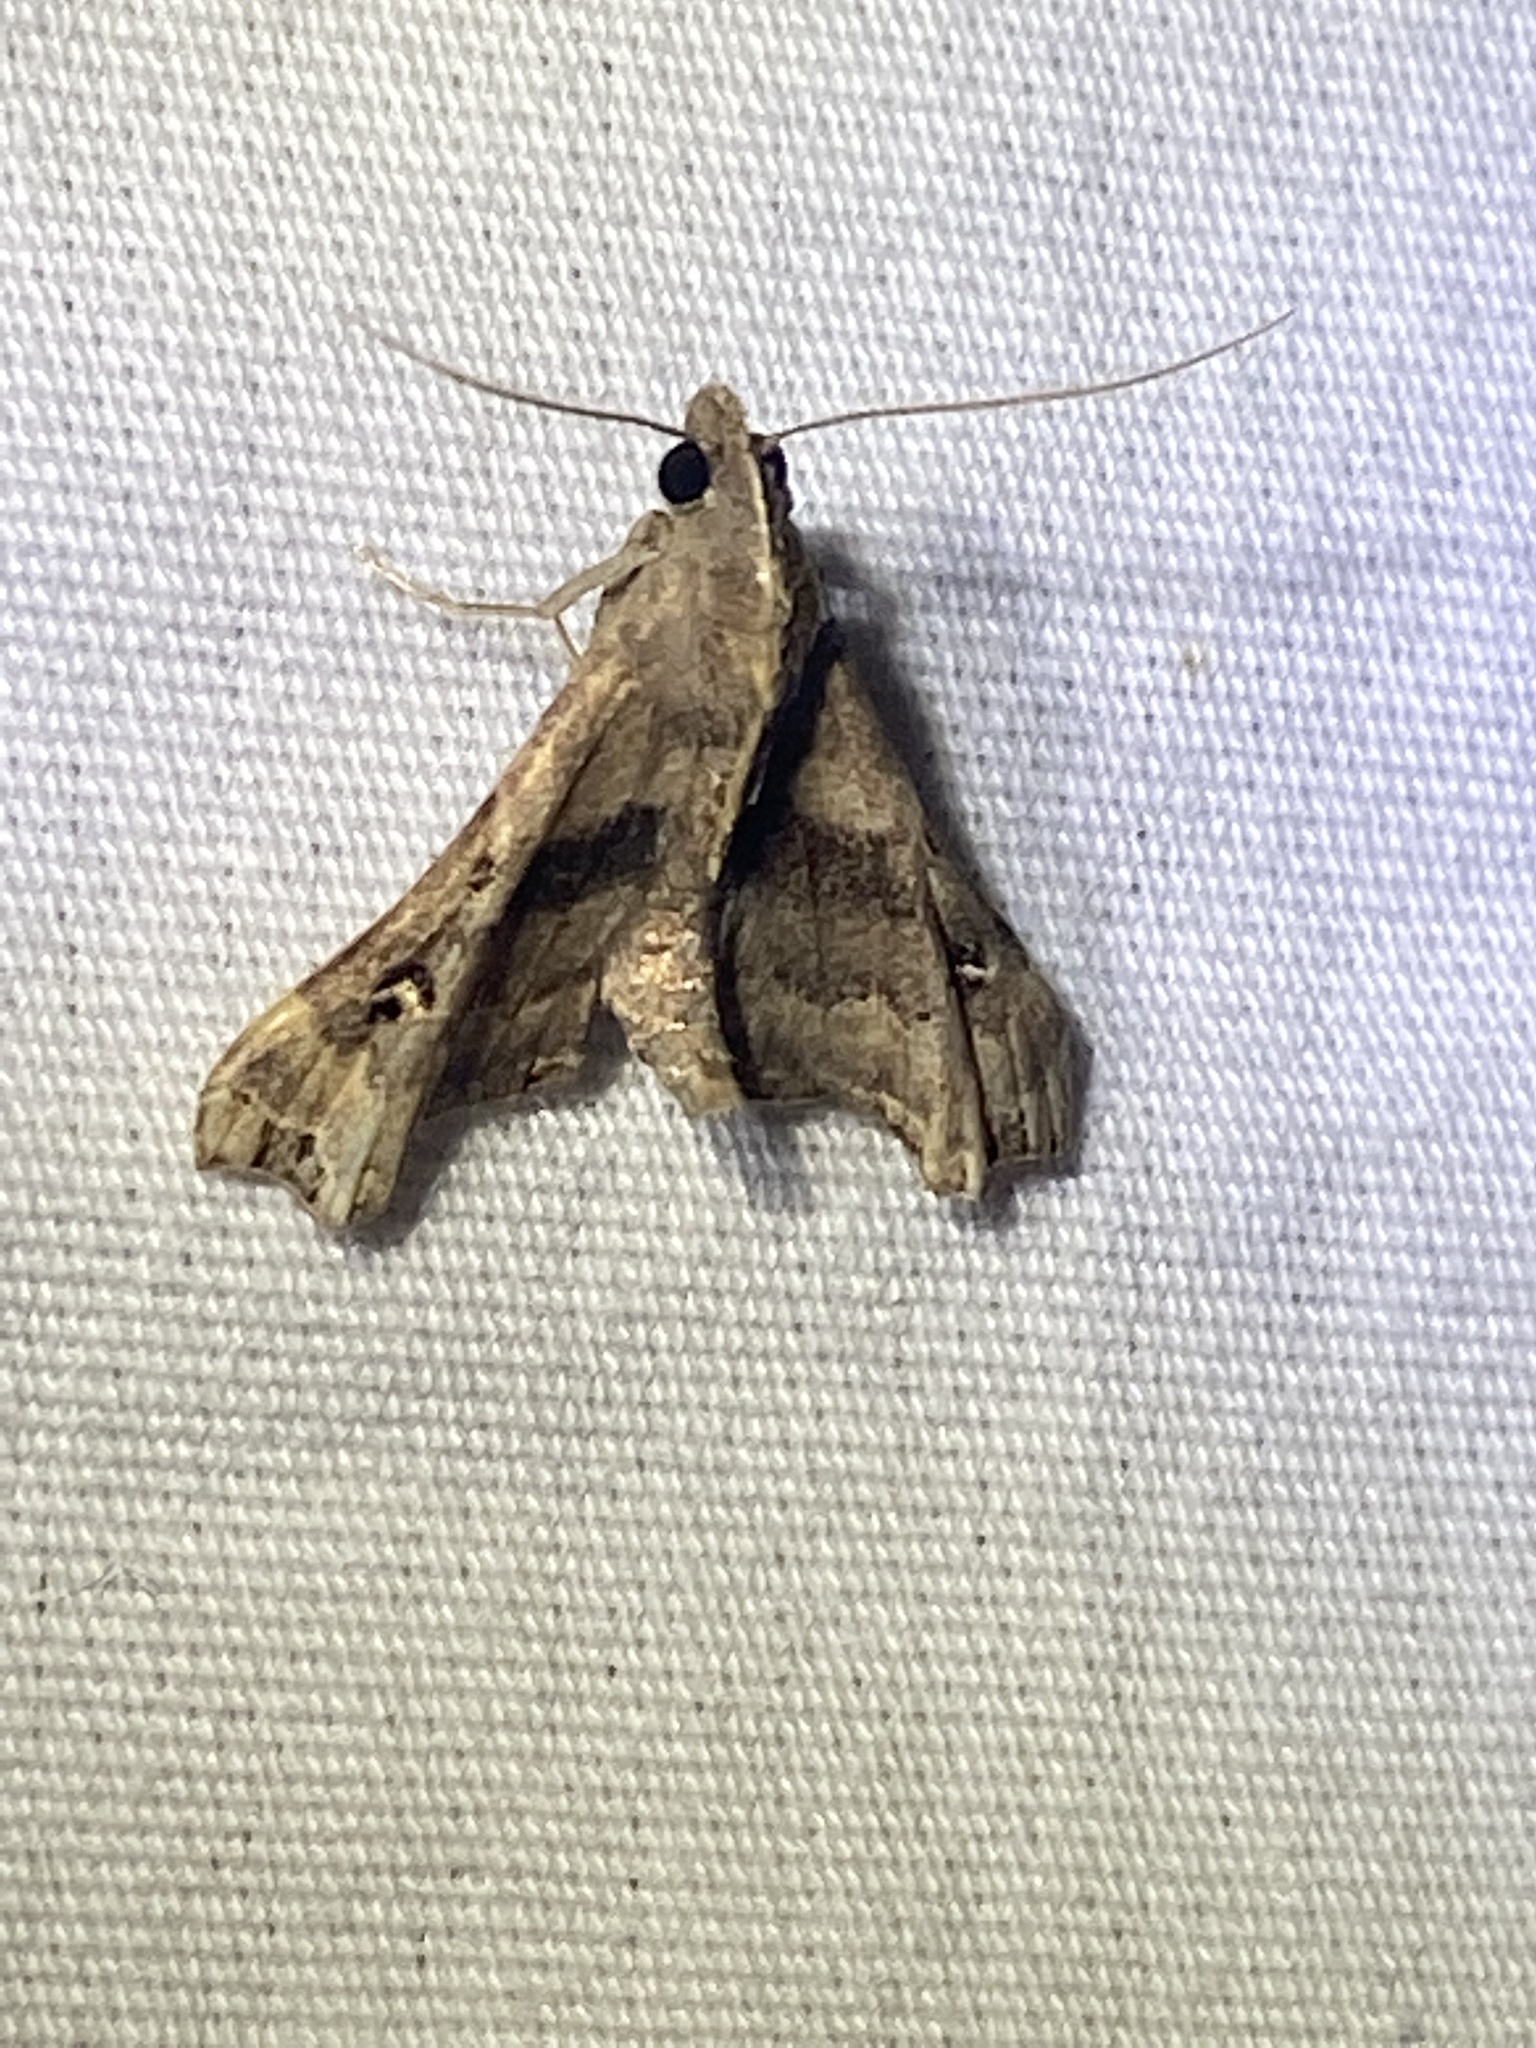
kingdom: Animalia
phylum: Arthropoda
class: Insecta
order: Lepidoptera
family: Erebidae
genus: Palthis
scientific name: Palthis asopialis
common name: Faint-spotted palthis moth
